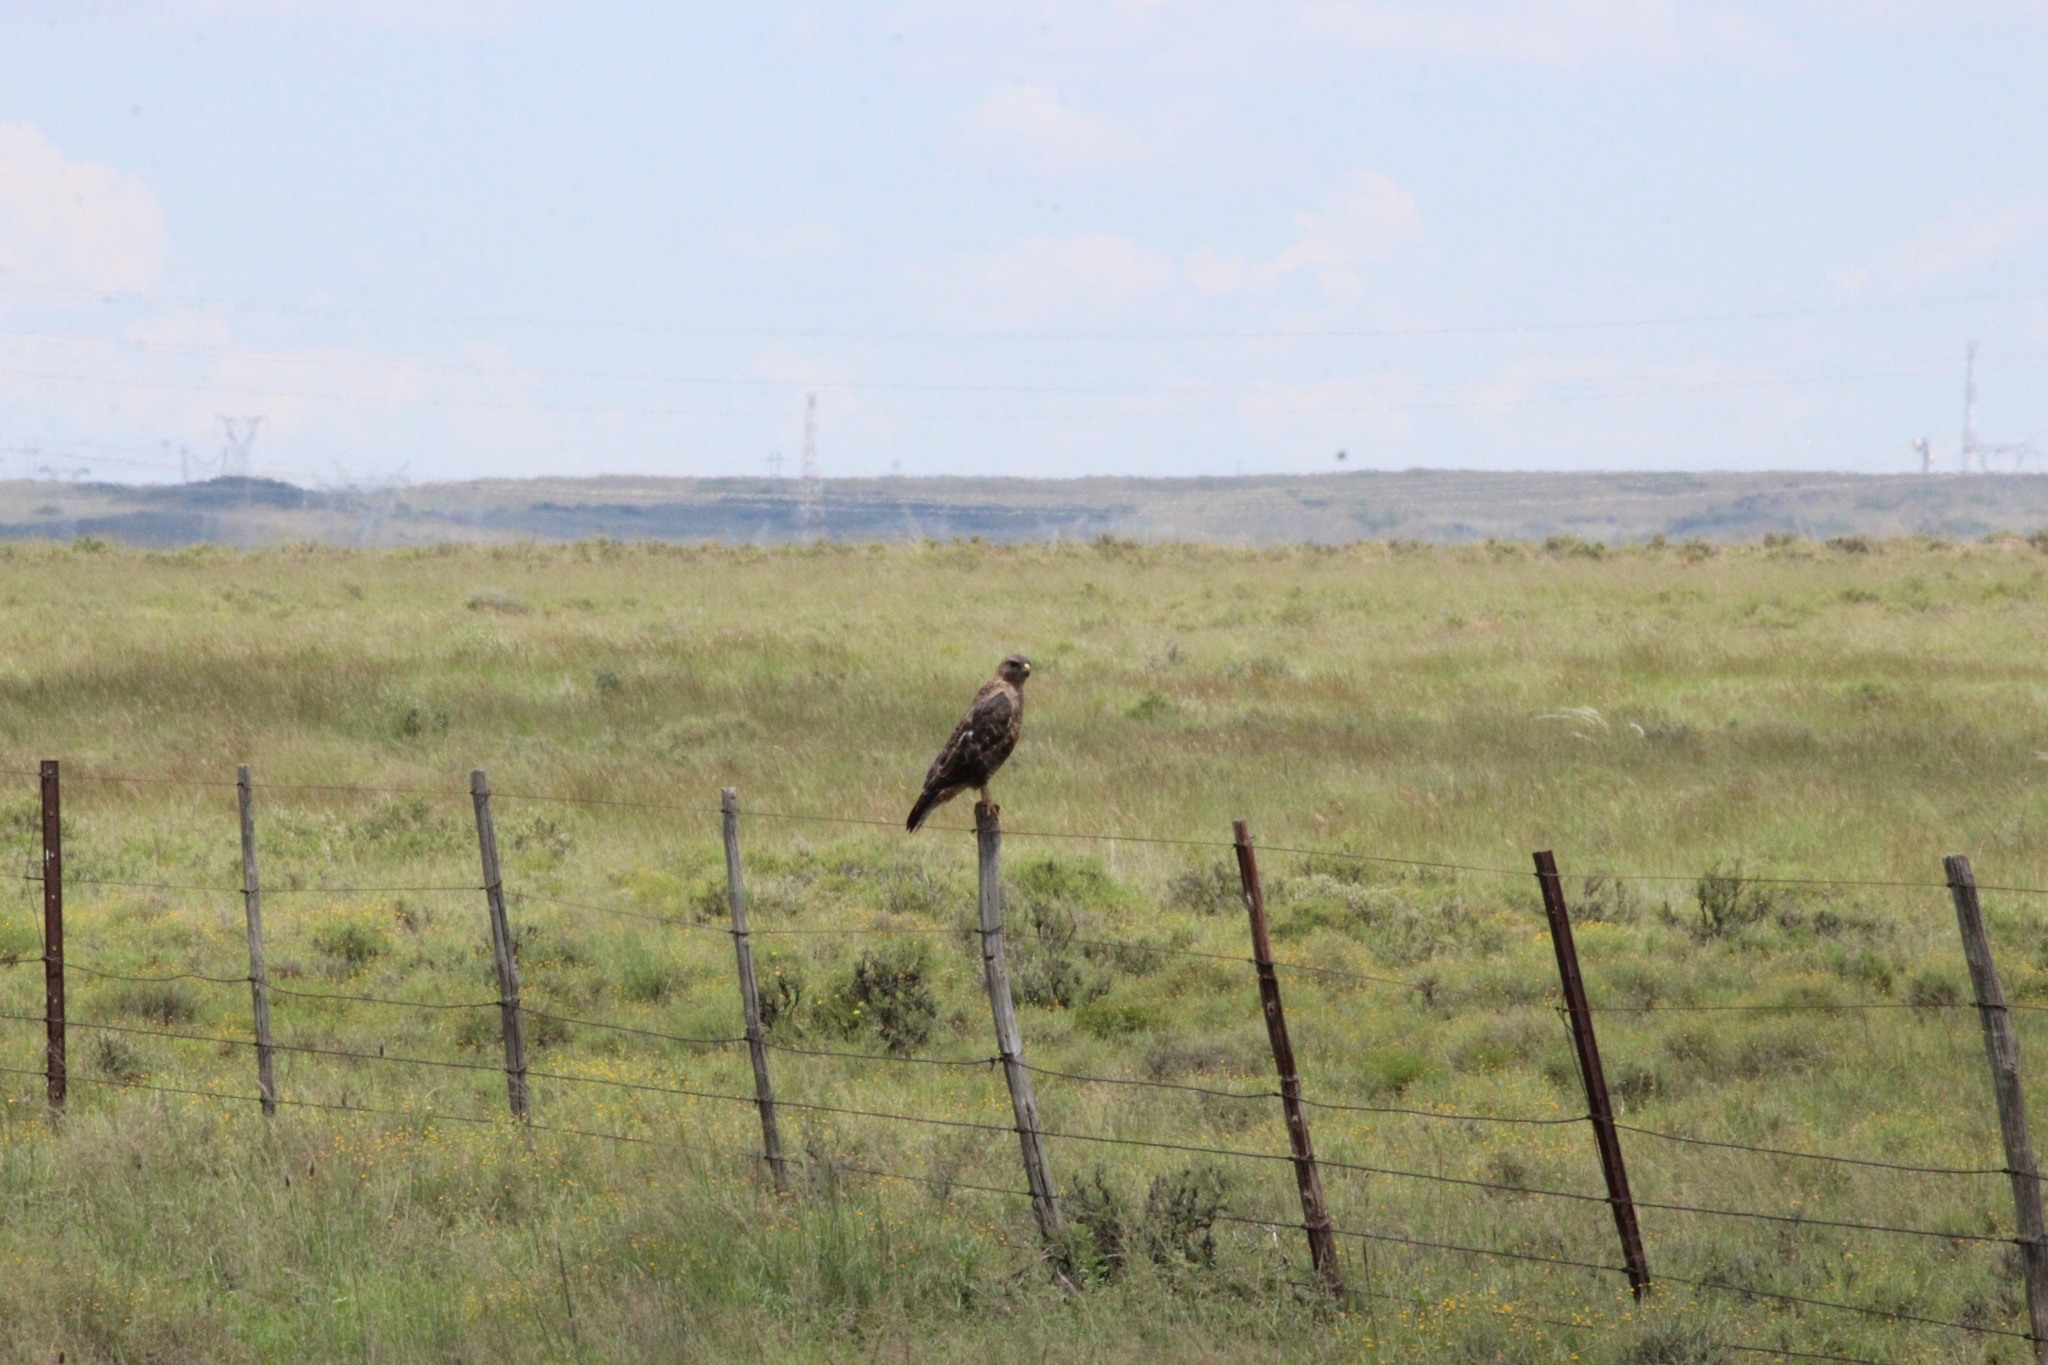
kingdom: Animalia
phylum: Chordata
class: Aves
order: Accipitriformes
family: Accipitridae
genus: Buteo
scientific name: Buteo buteo
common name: Common buzzard
